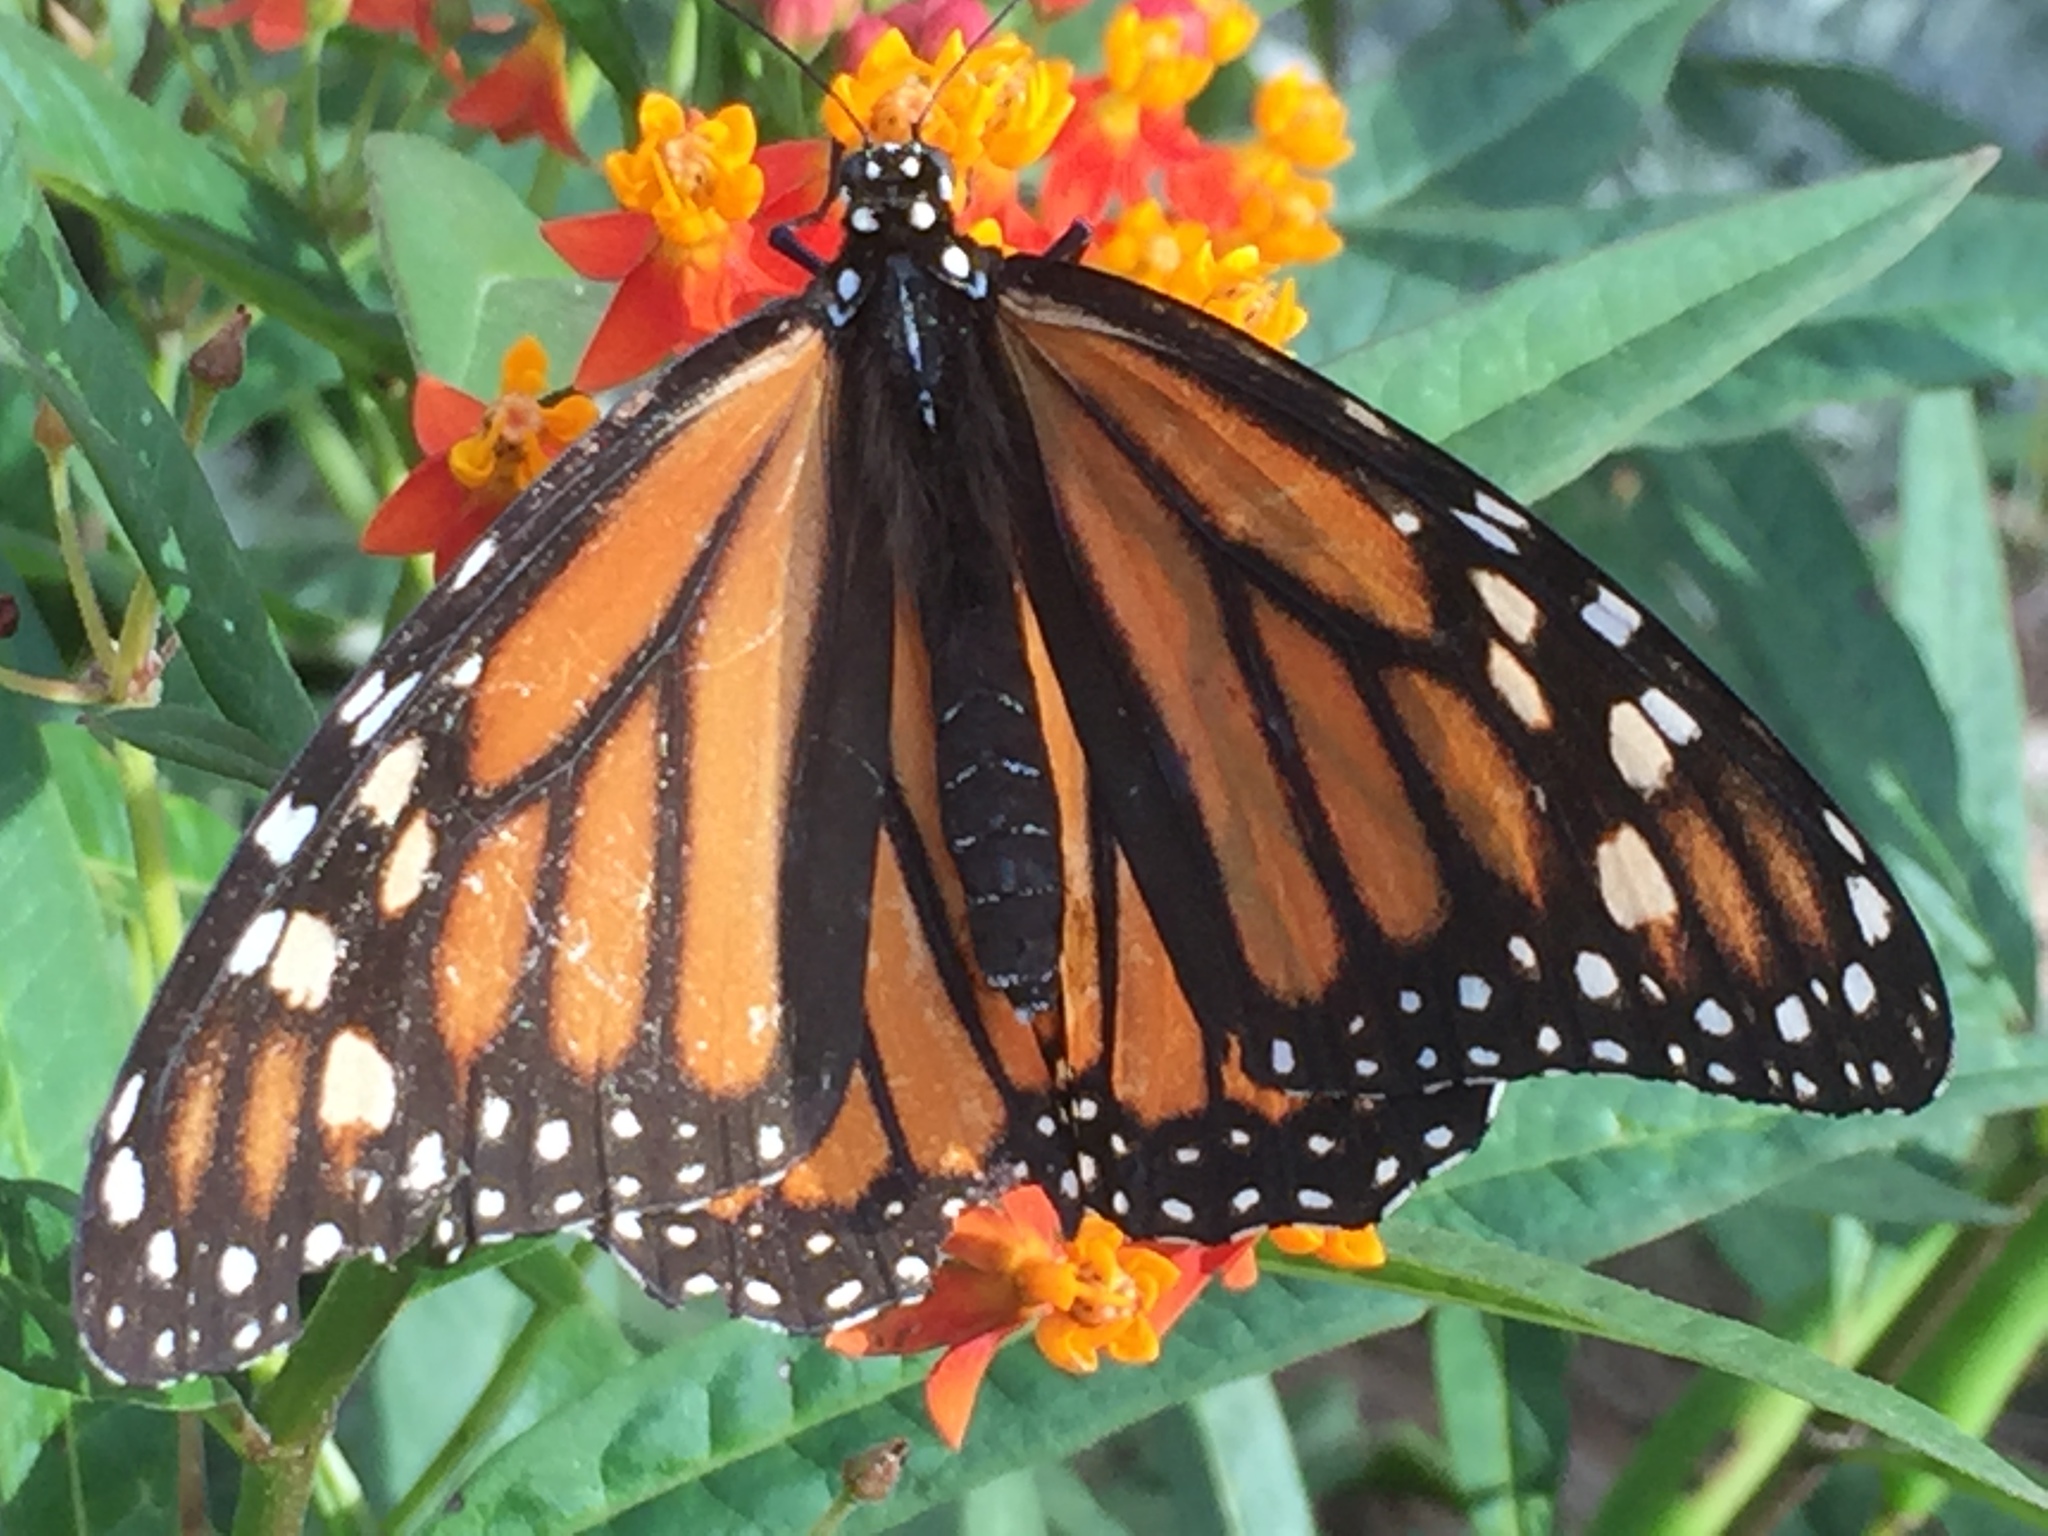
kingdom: Animalia
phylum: Arthropoda
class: Insecta
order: Lepidoptera
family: Nymphalidae
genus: Danaus
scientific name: Danaus plexippus
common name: Monarch
